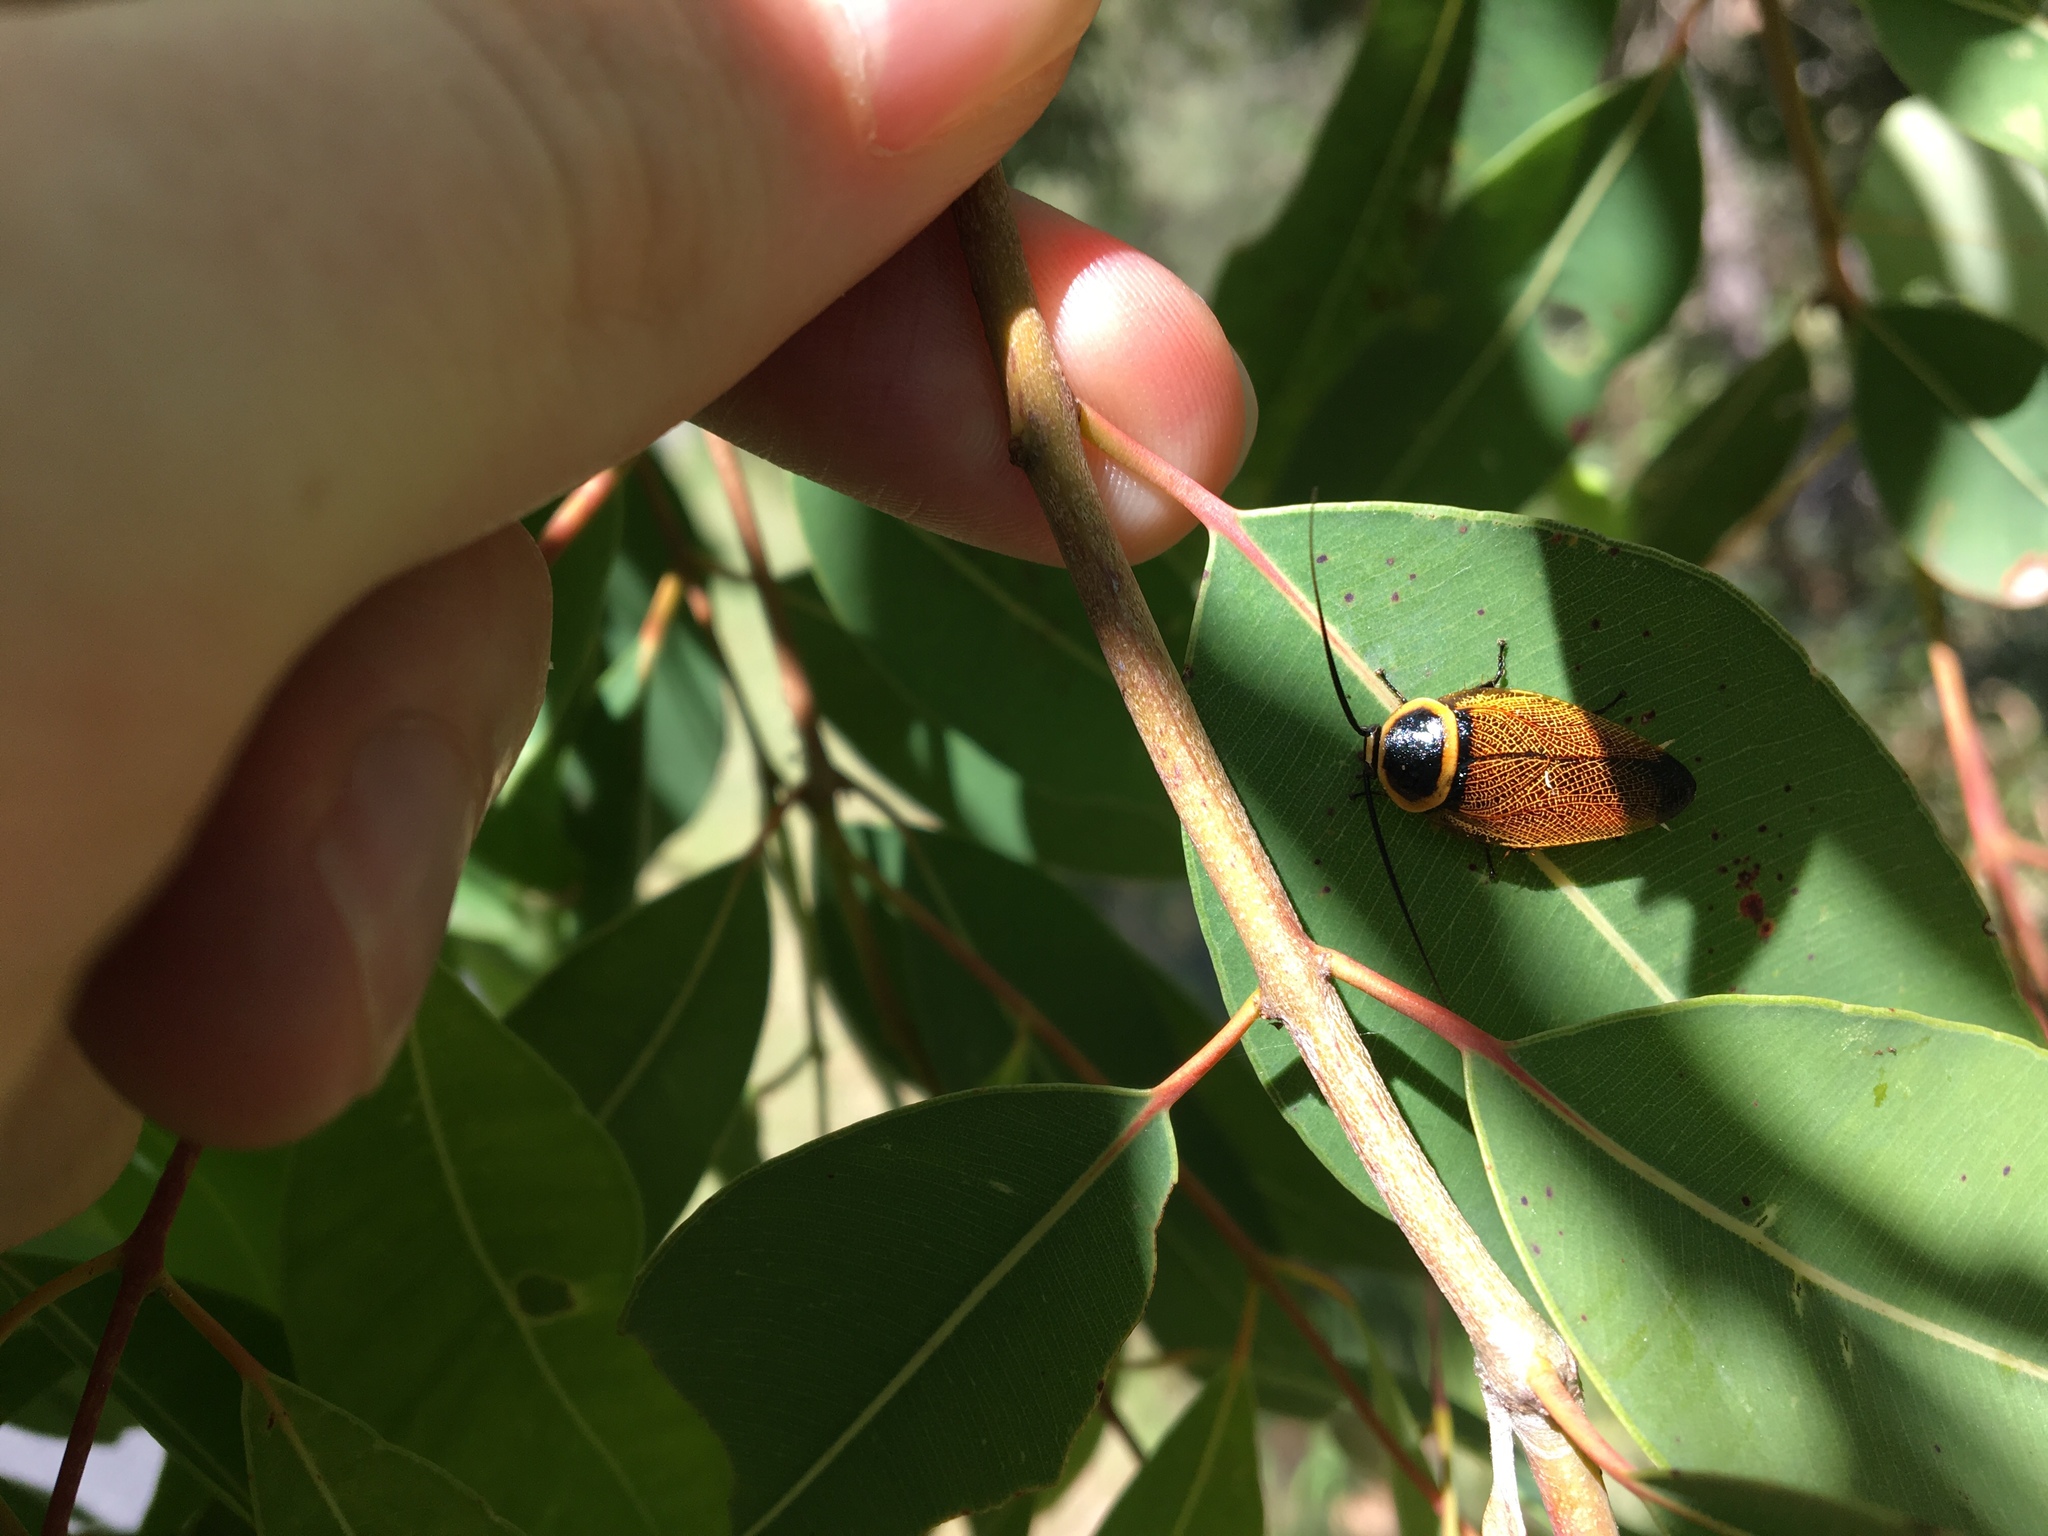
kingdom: Animalia
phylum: Arthropoda
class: Insecta
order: Blattodea
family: Ectobiidae
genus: Ellipsidion
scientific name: Ellipsidion australe
